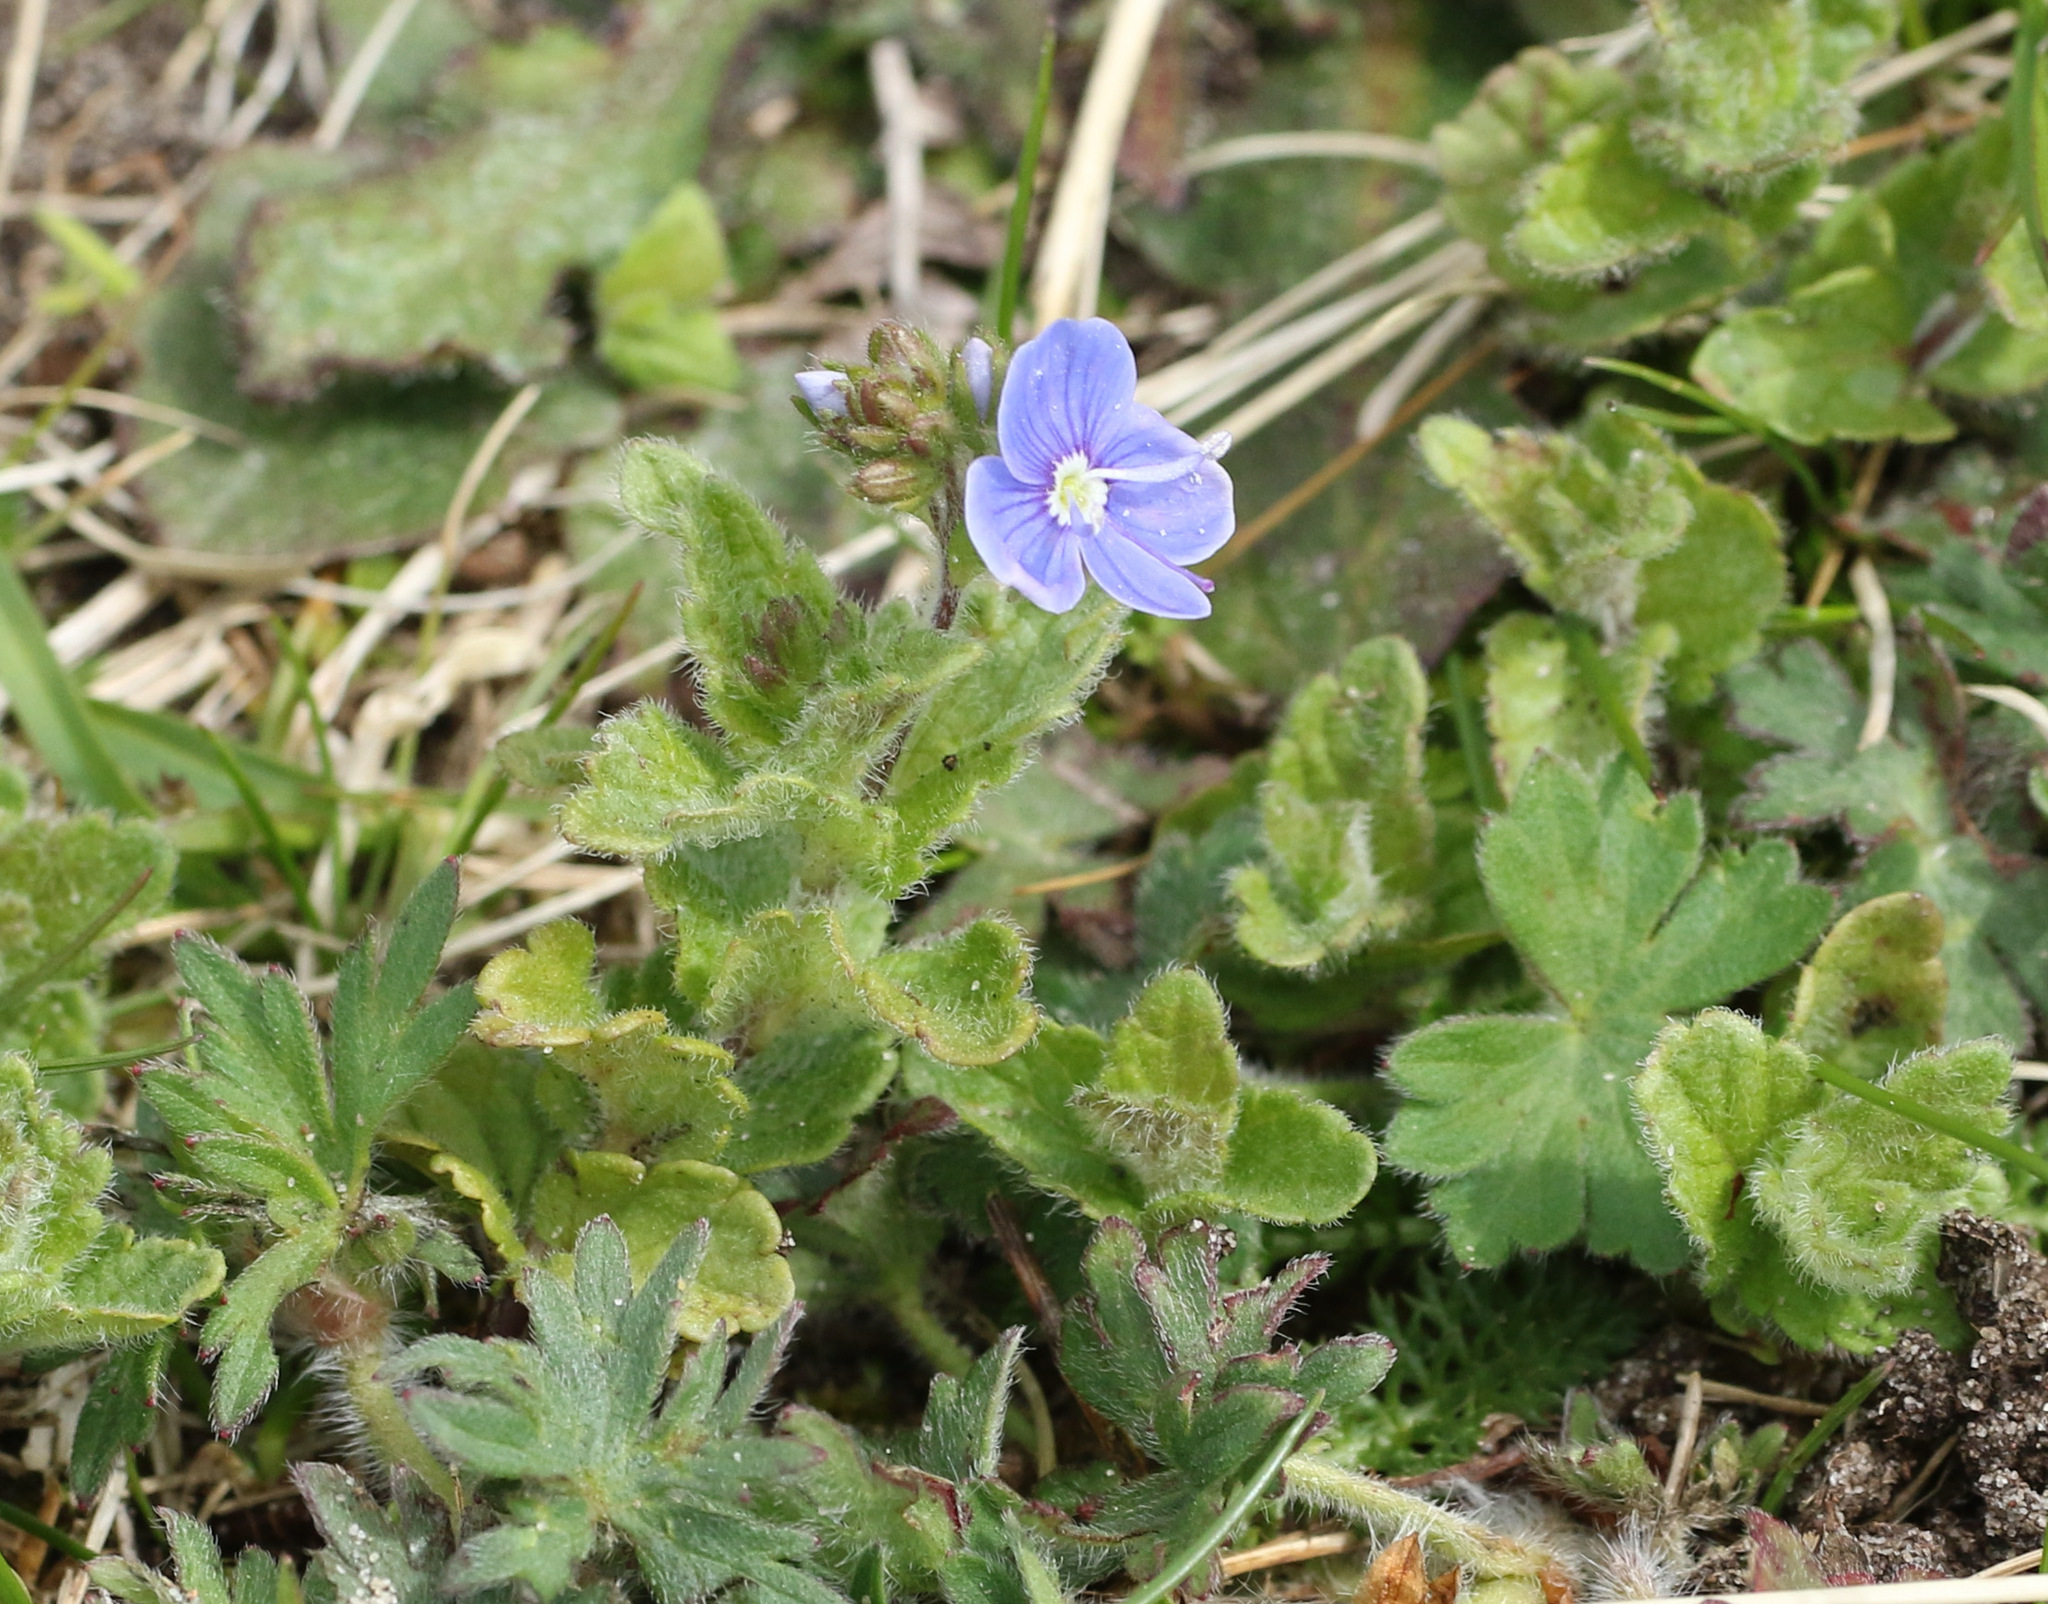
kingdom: Plantae
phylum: Tracheophyta
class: Magnoliopsida
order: Lamiales
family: Plantaginaceae
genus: Veronica
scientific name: Veronica chamaedrys
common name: Germander speedwell
